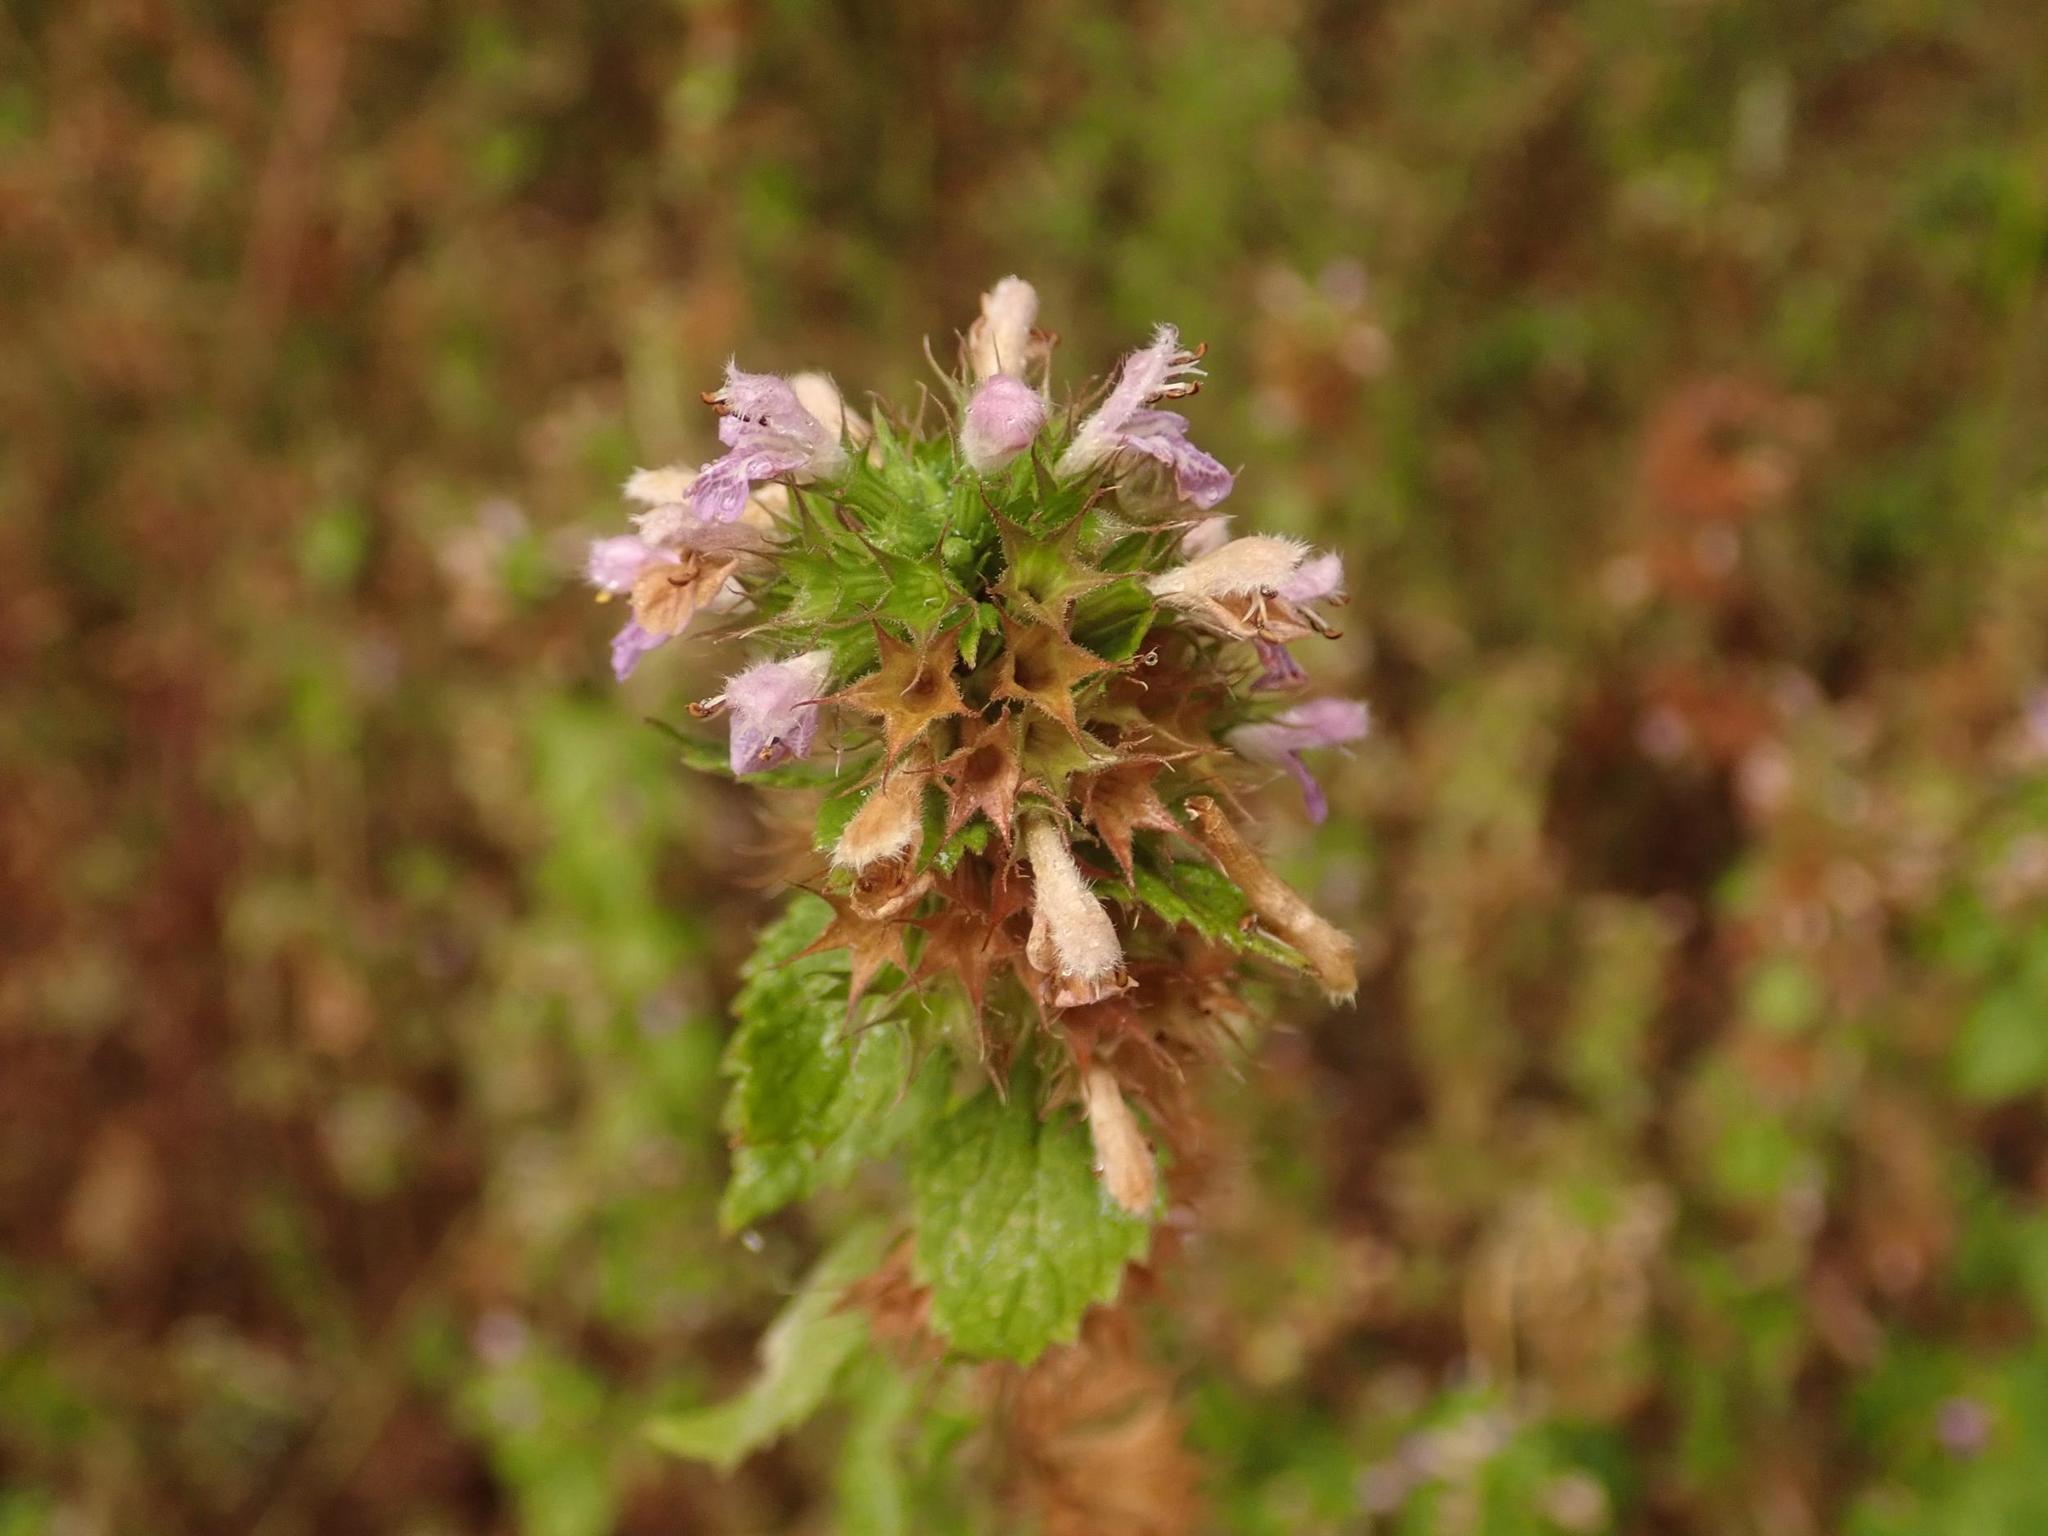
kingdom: Plantae
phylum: Tracheophyta
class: Magnoliopsida
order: Lamiales
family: Lamiaceae
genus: Ballota
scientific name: Ballota nigra
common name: Black horehound
